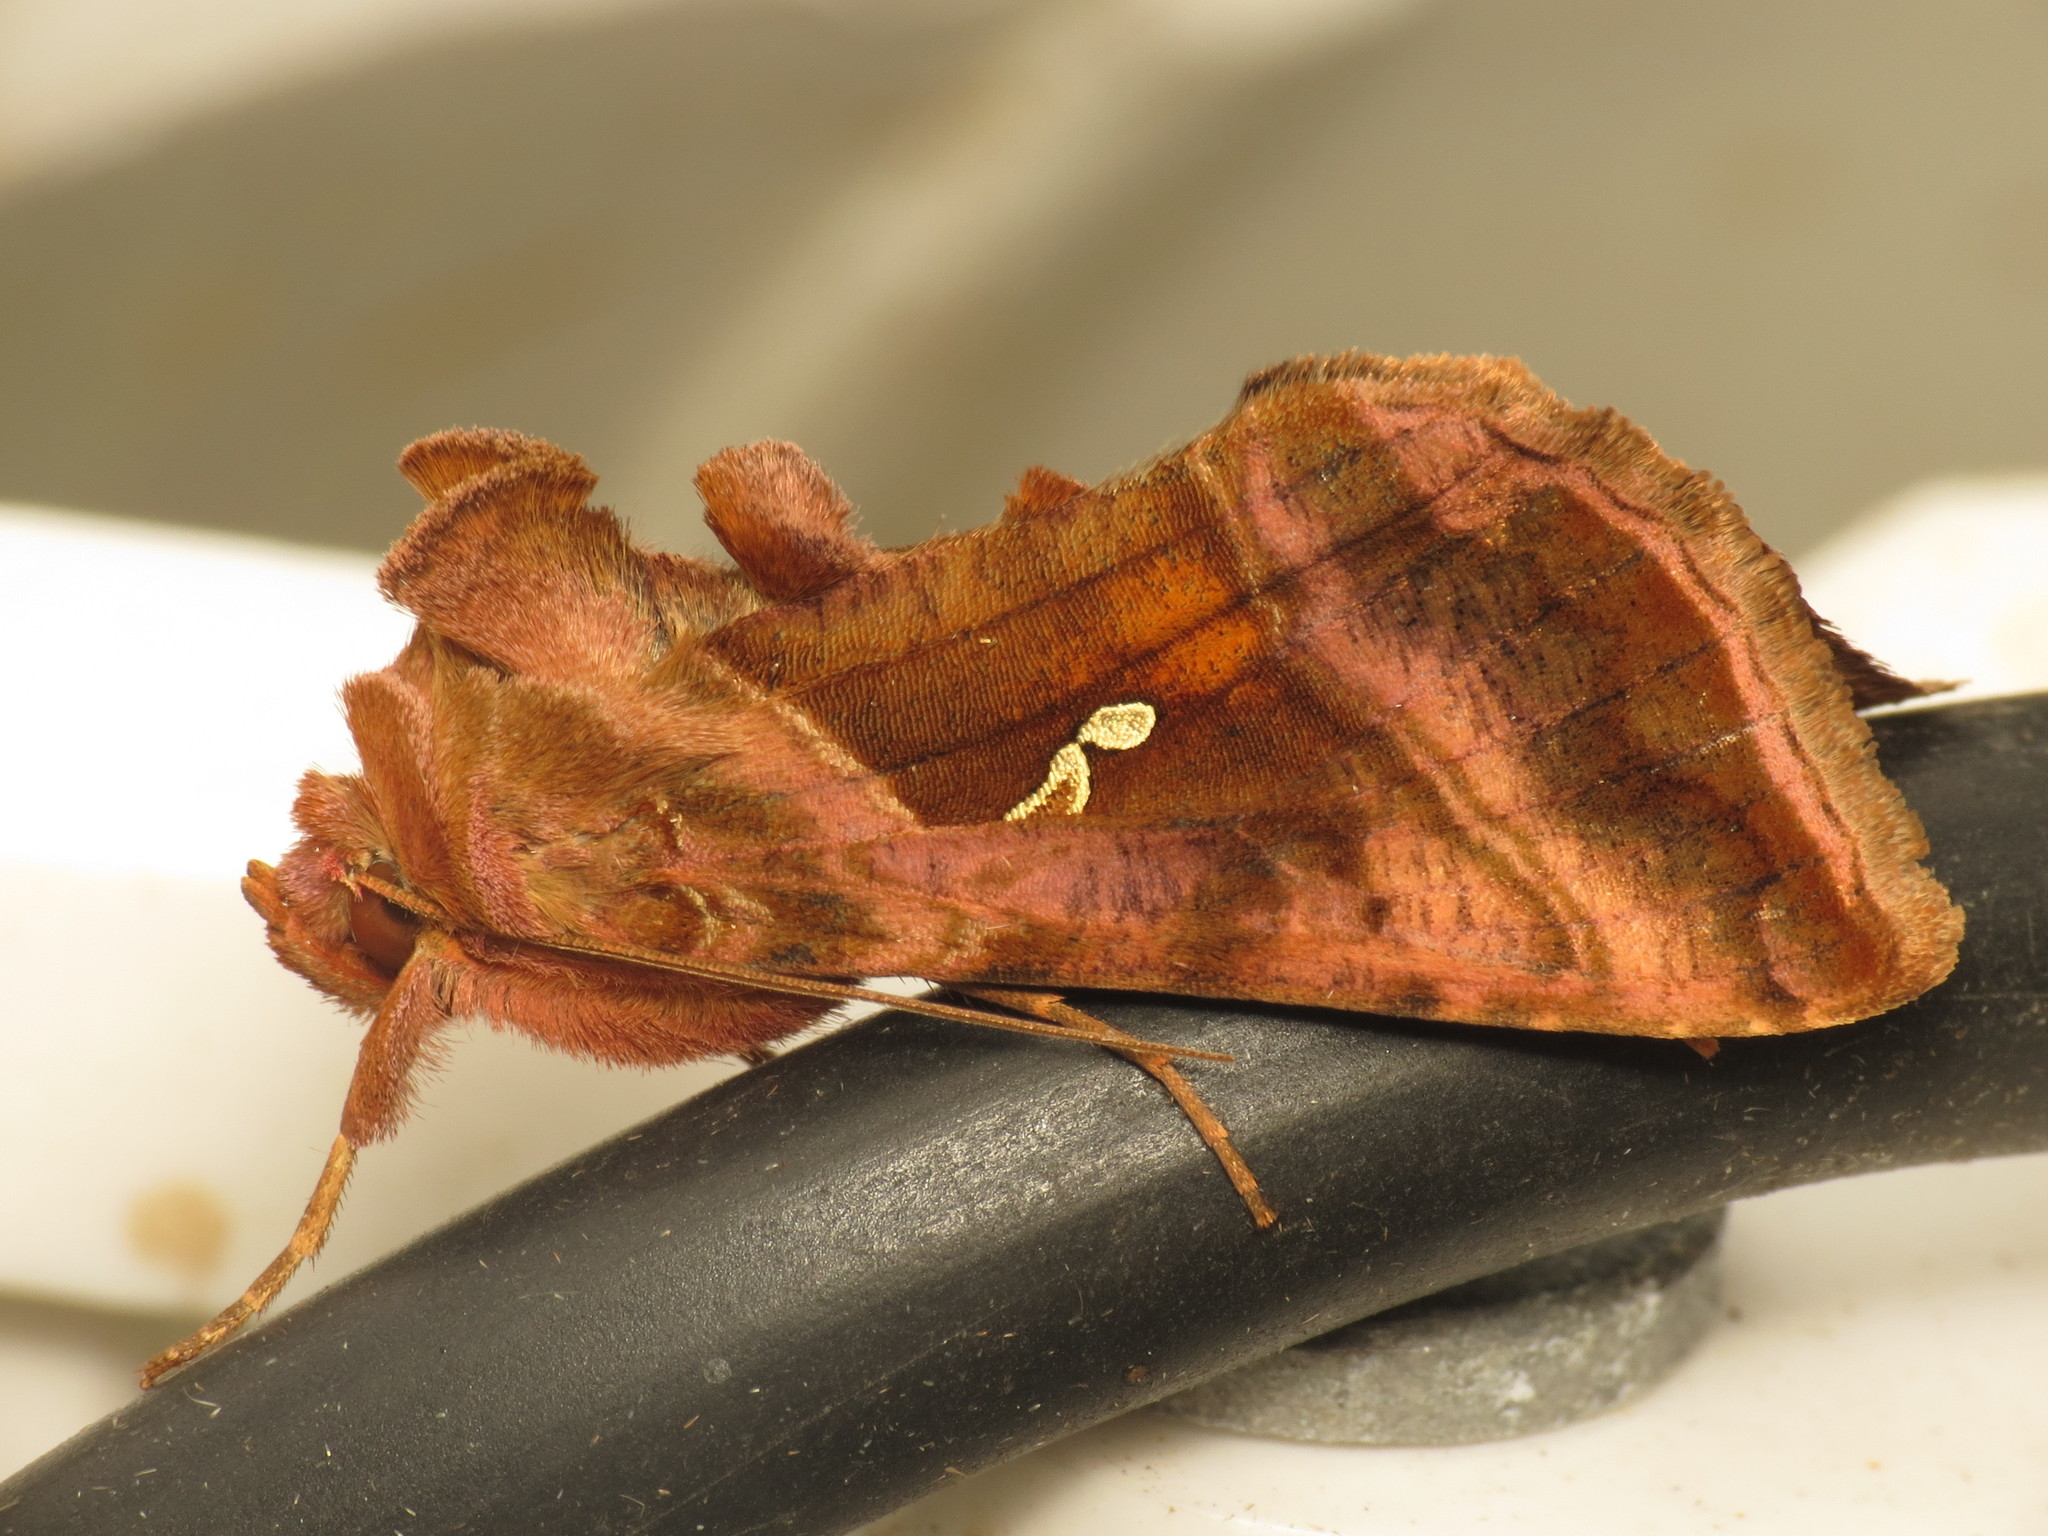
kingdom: Animalia
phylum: Arthropoda
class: Insecta
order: Lepidoptera
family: Noctuidae
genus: Autographa
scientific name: Autographa jota
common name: Plain golden y
